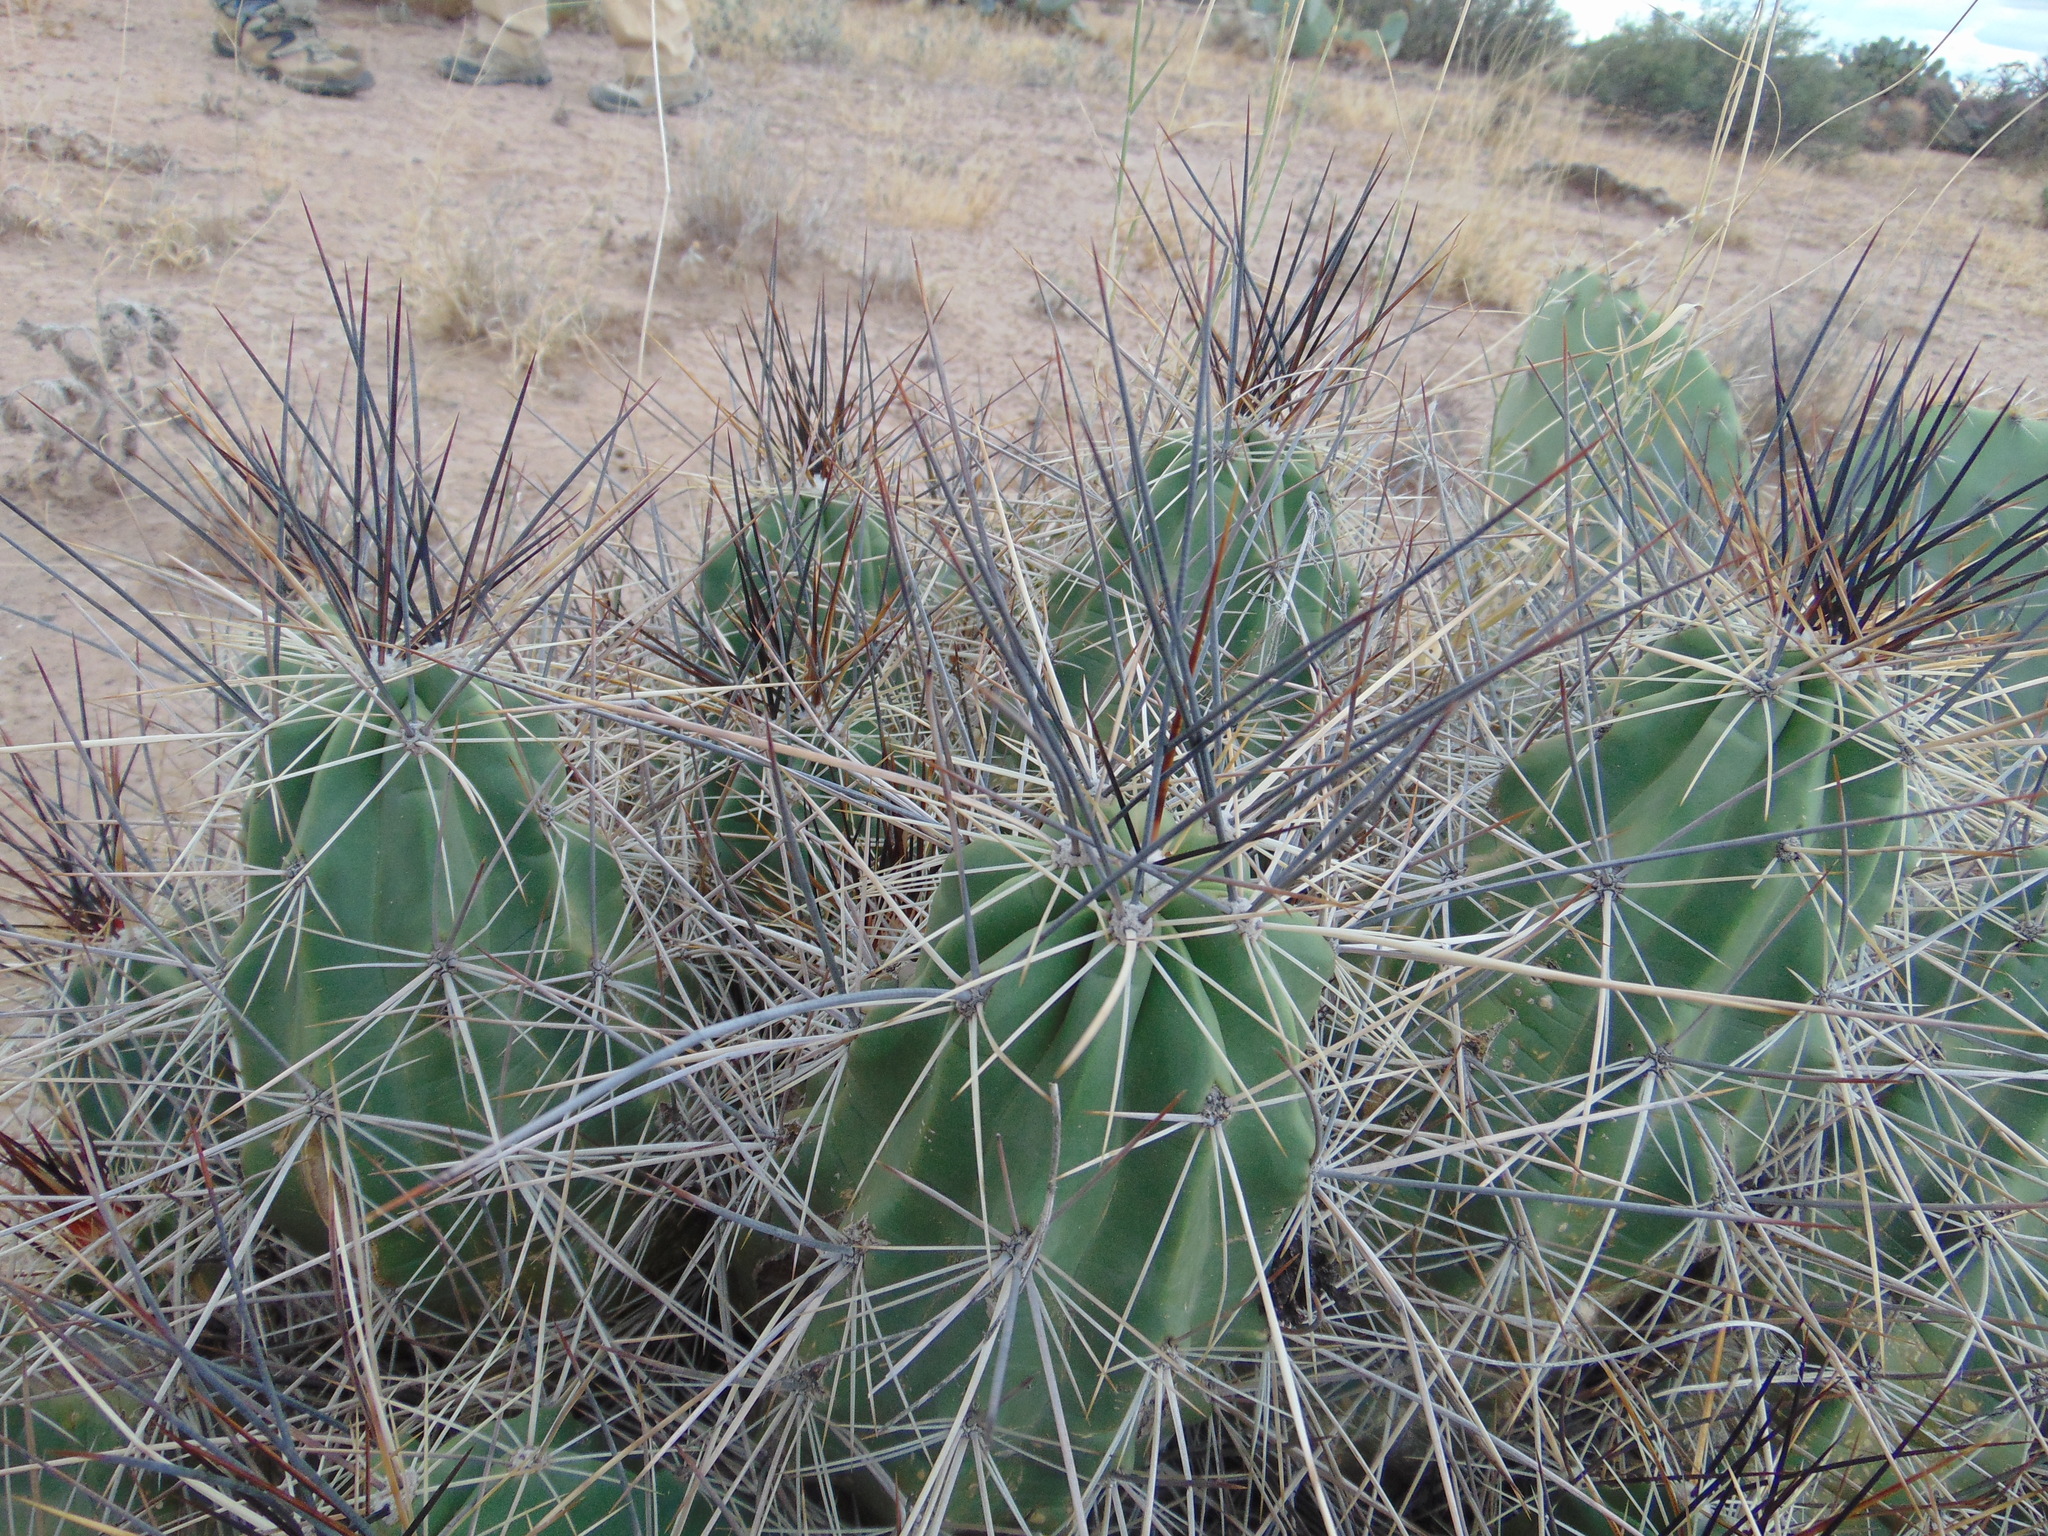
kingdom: Plantae
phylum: Tracheophyta
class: Magnoliopsida
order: Caryophyllales
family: Cactaceae
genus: Echinocereus
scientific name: Echinocereus enneacanthus
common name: Pitaya
